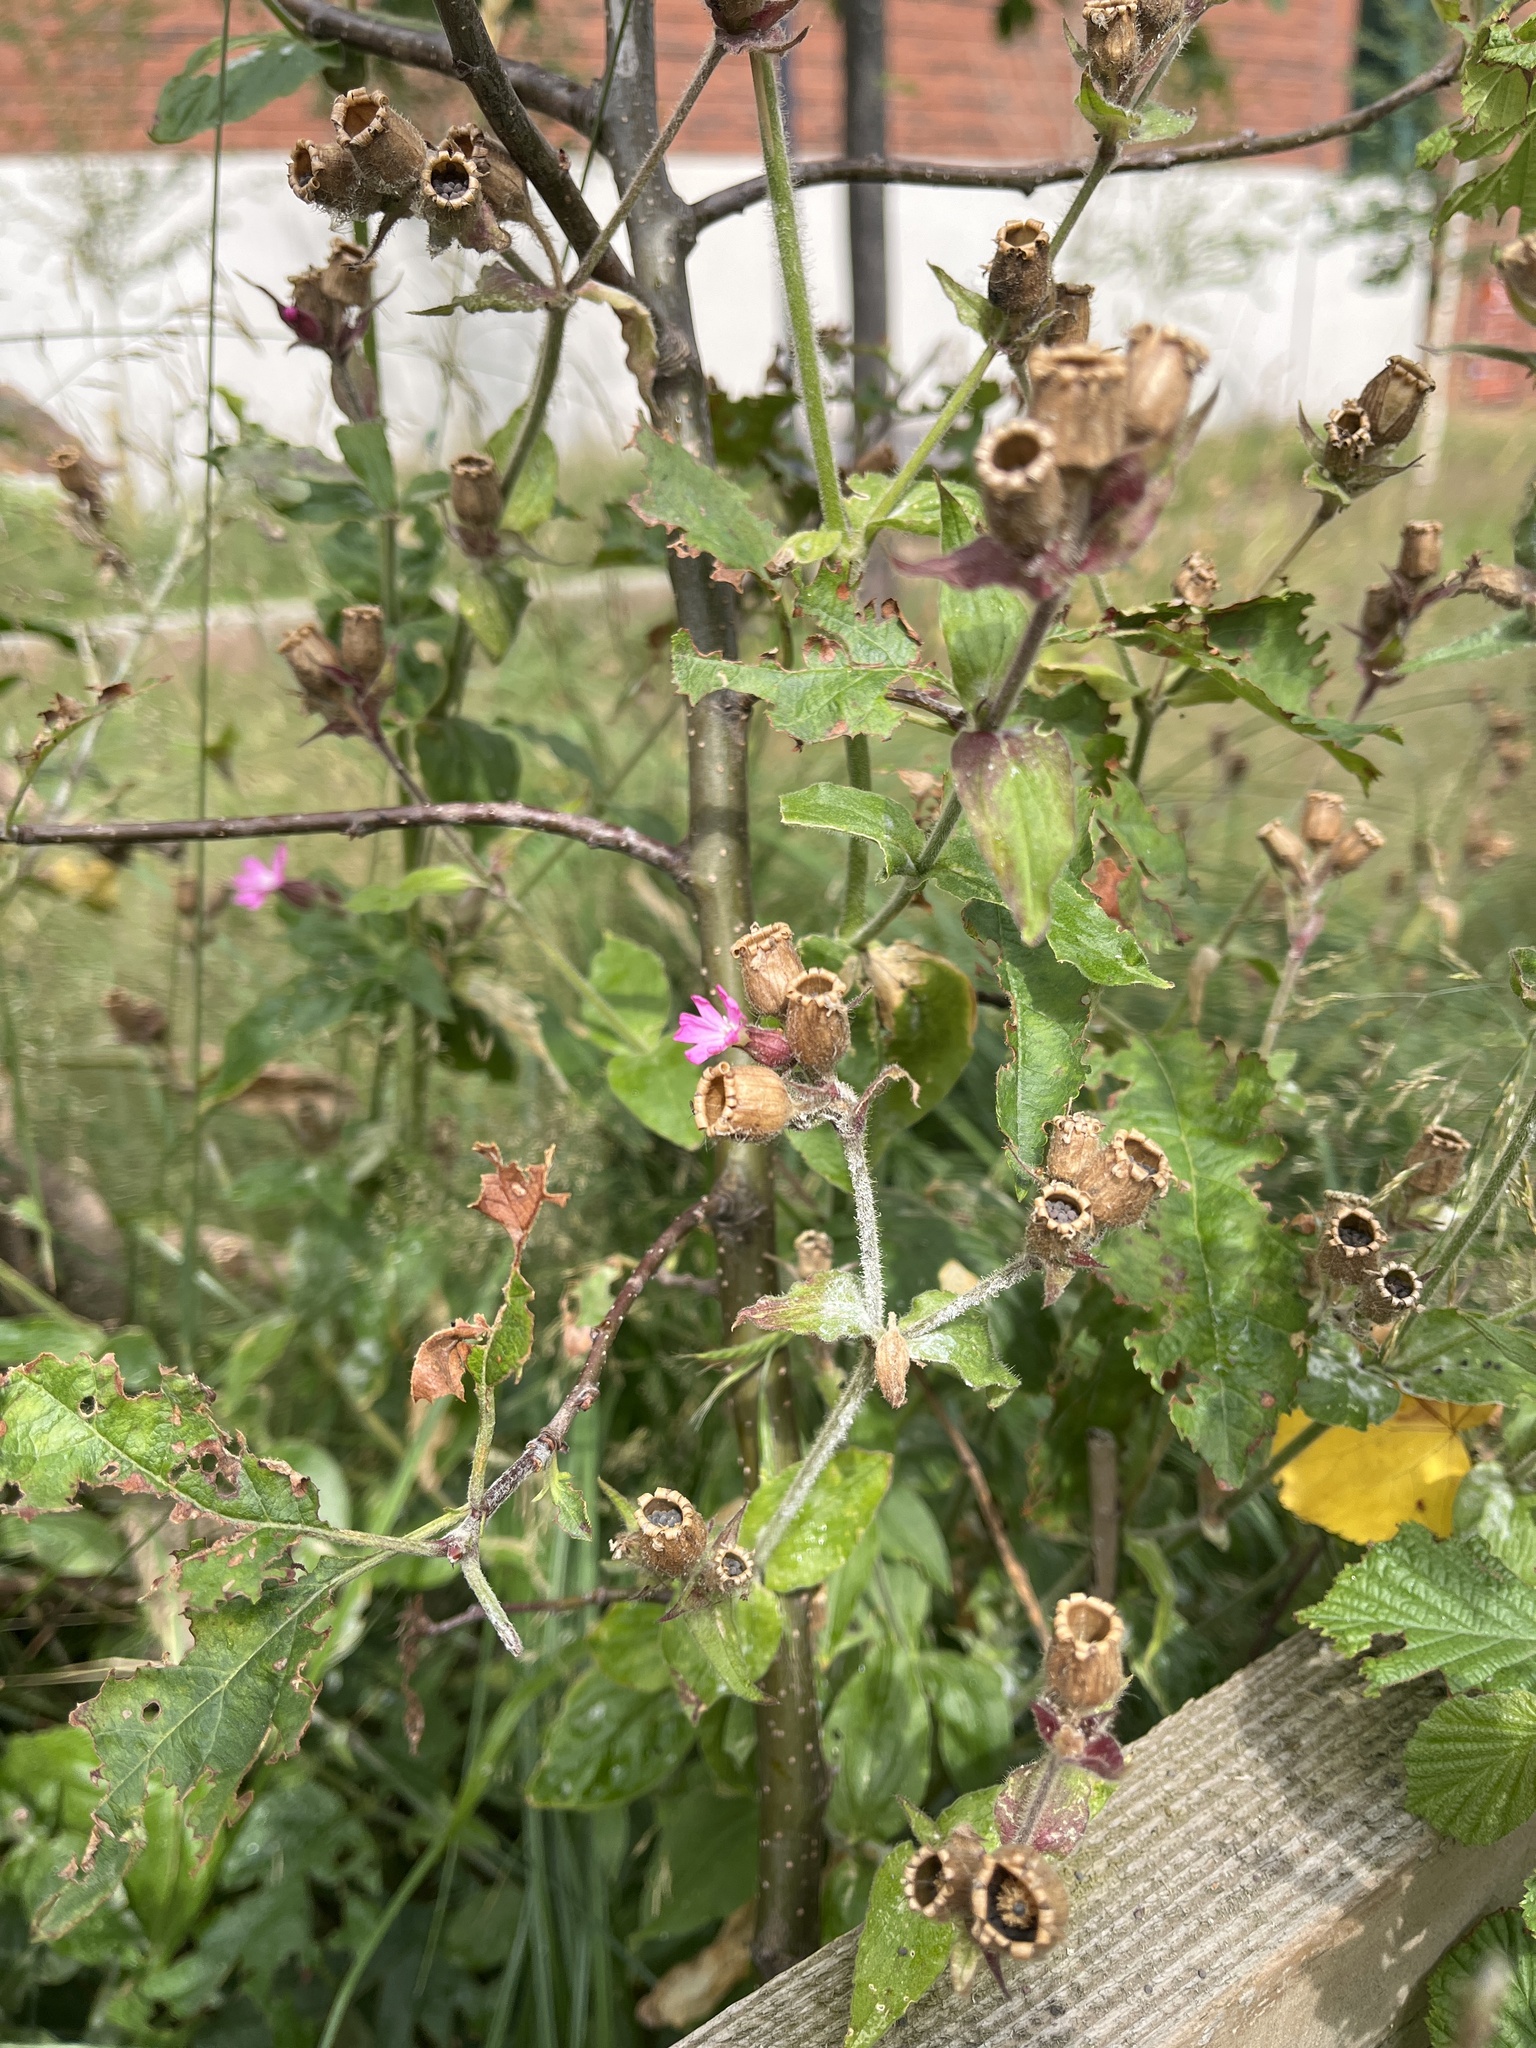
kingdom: Plantae
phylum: Tracheophyta
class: Magnoliopsida
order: Caryophyllales
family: Caryophyllaceae
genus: Silene
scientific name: Silene dioica
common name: Red campion
